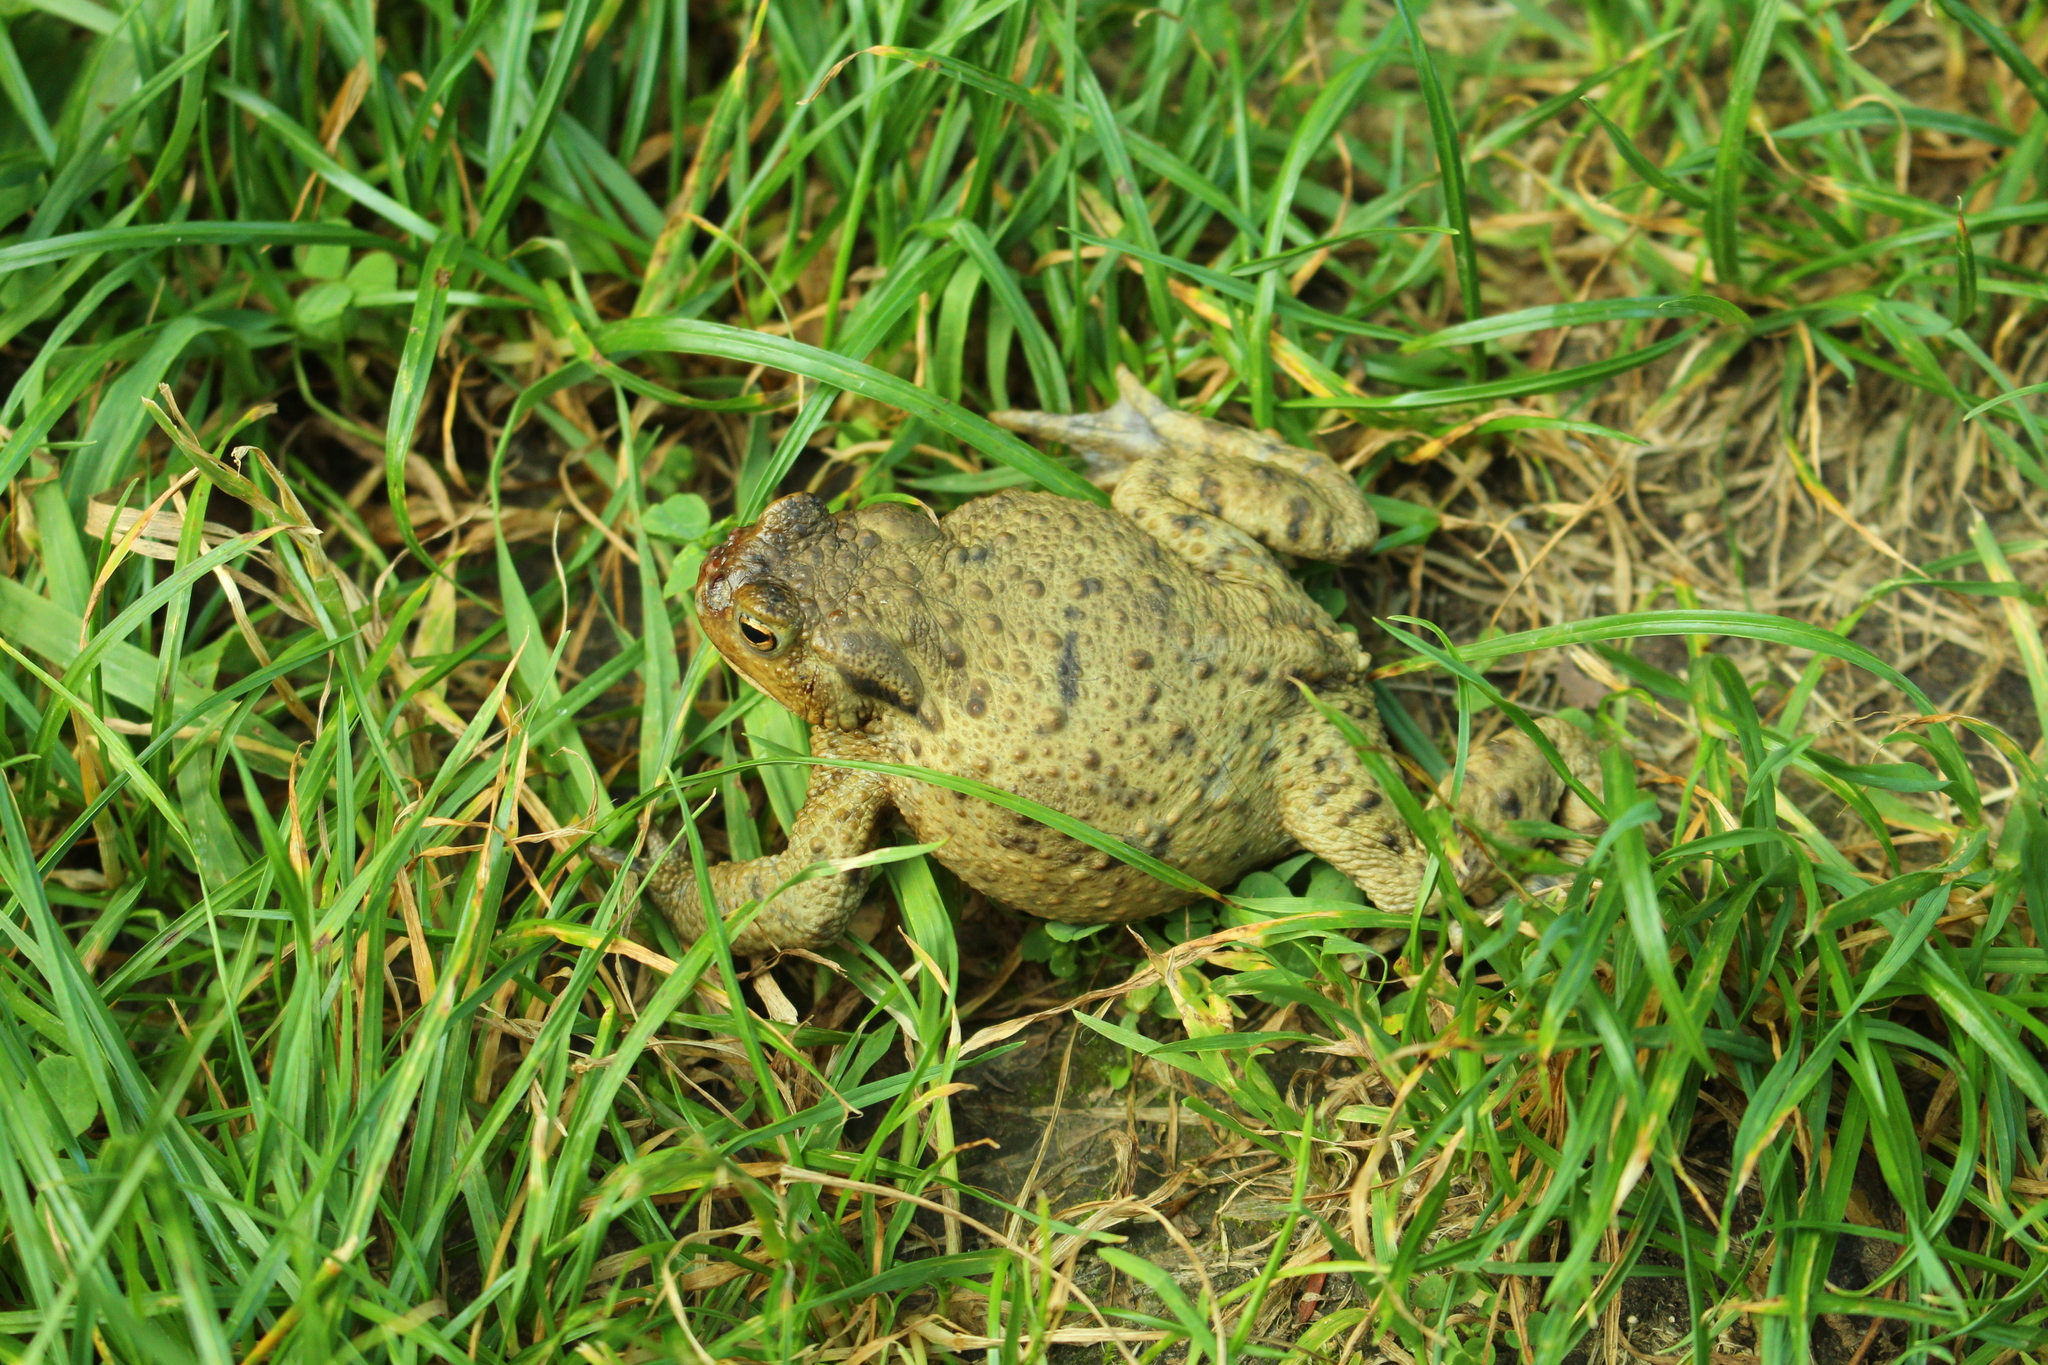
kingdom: Animalia
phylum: Chordata
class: Amphibia
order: Anura
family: Bufonidae
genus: Bufo
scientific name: Bufo bufo
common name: Common toad
